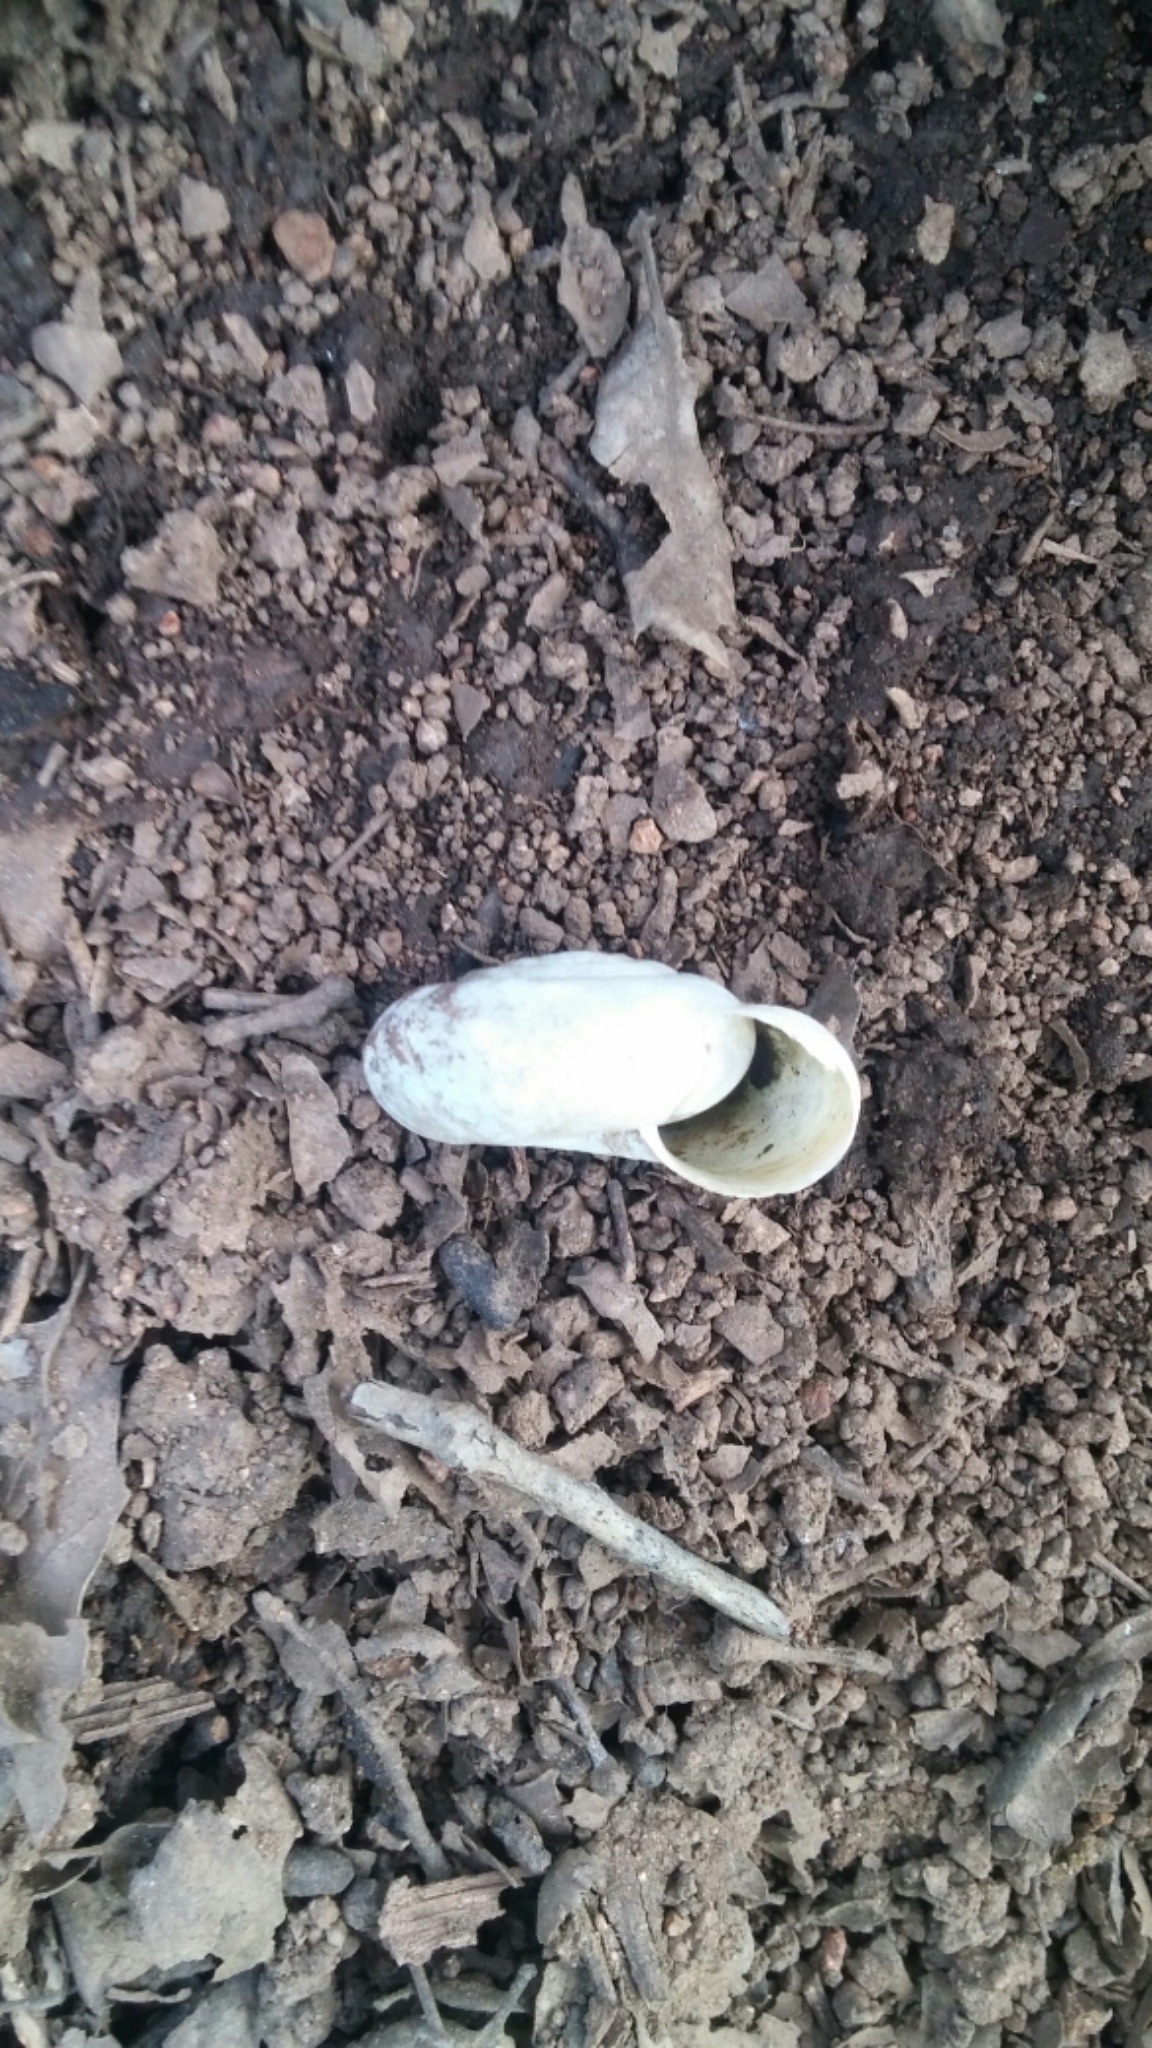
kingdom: Animalia
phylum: Mollusca
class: Gastropoda
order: Stylommatophora
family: Megomphicidae
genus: Glyptostoma
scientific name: Glyptostoma newberryanum
